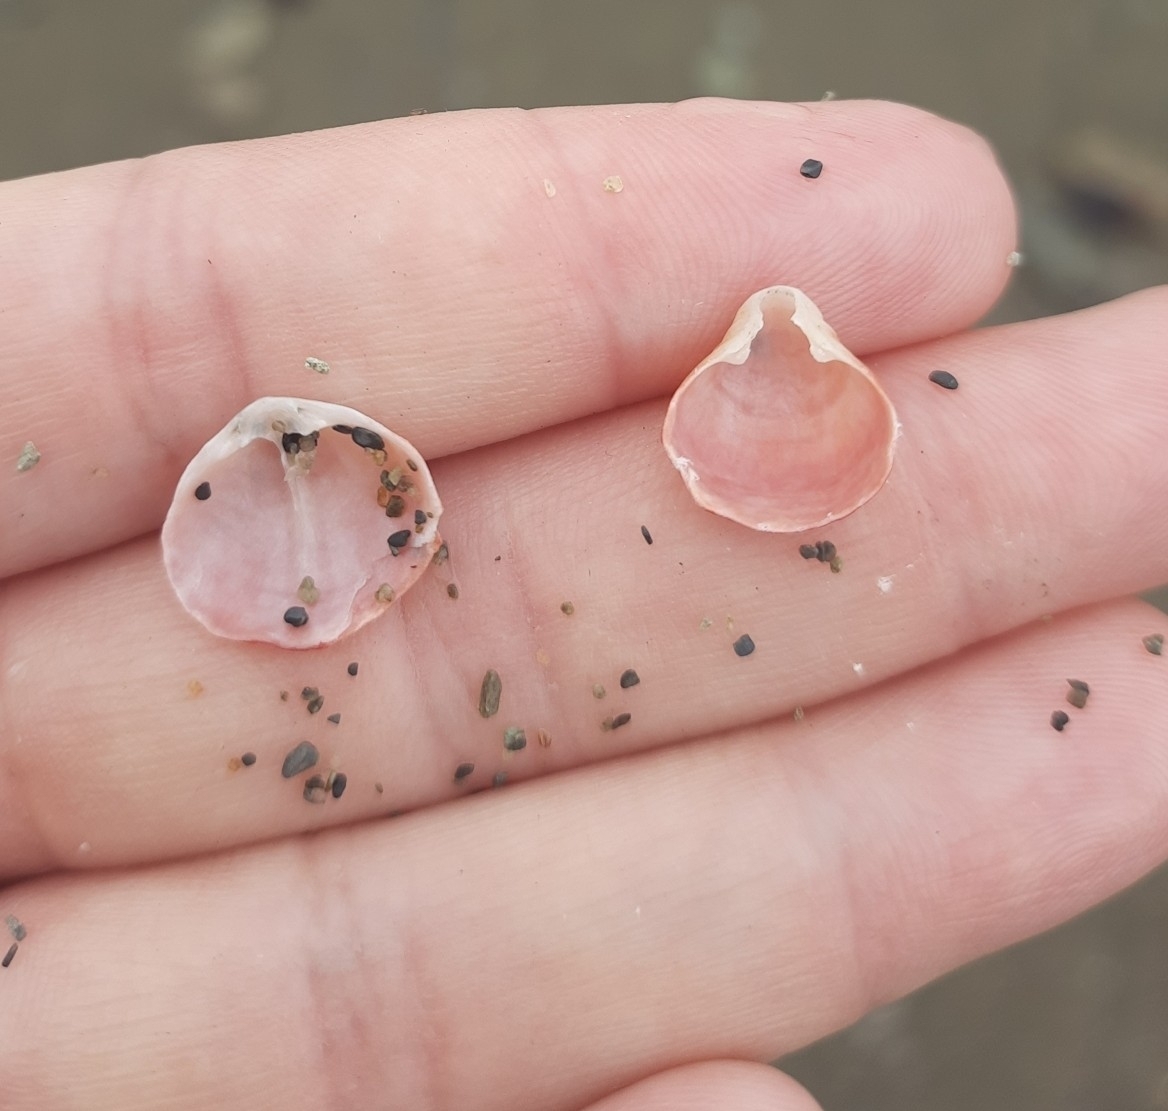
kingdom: Animalia
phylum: Brachiopoda
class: Rhynchonellata
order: Terebratulida
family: Terebratellidae
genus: Calloria
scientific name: Calloria inconspicua
